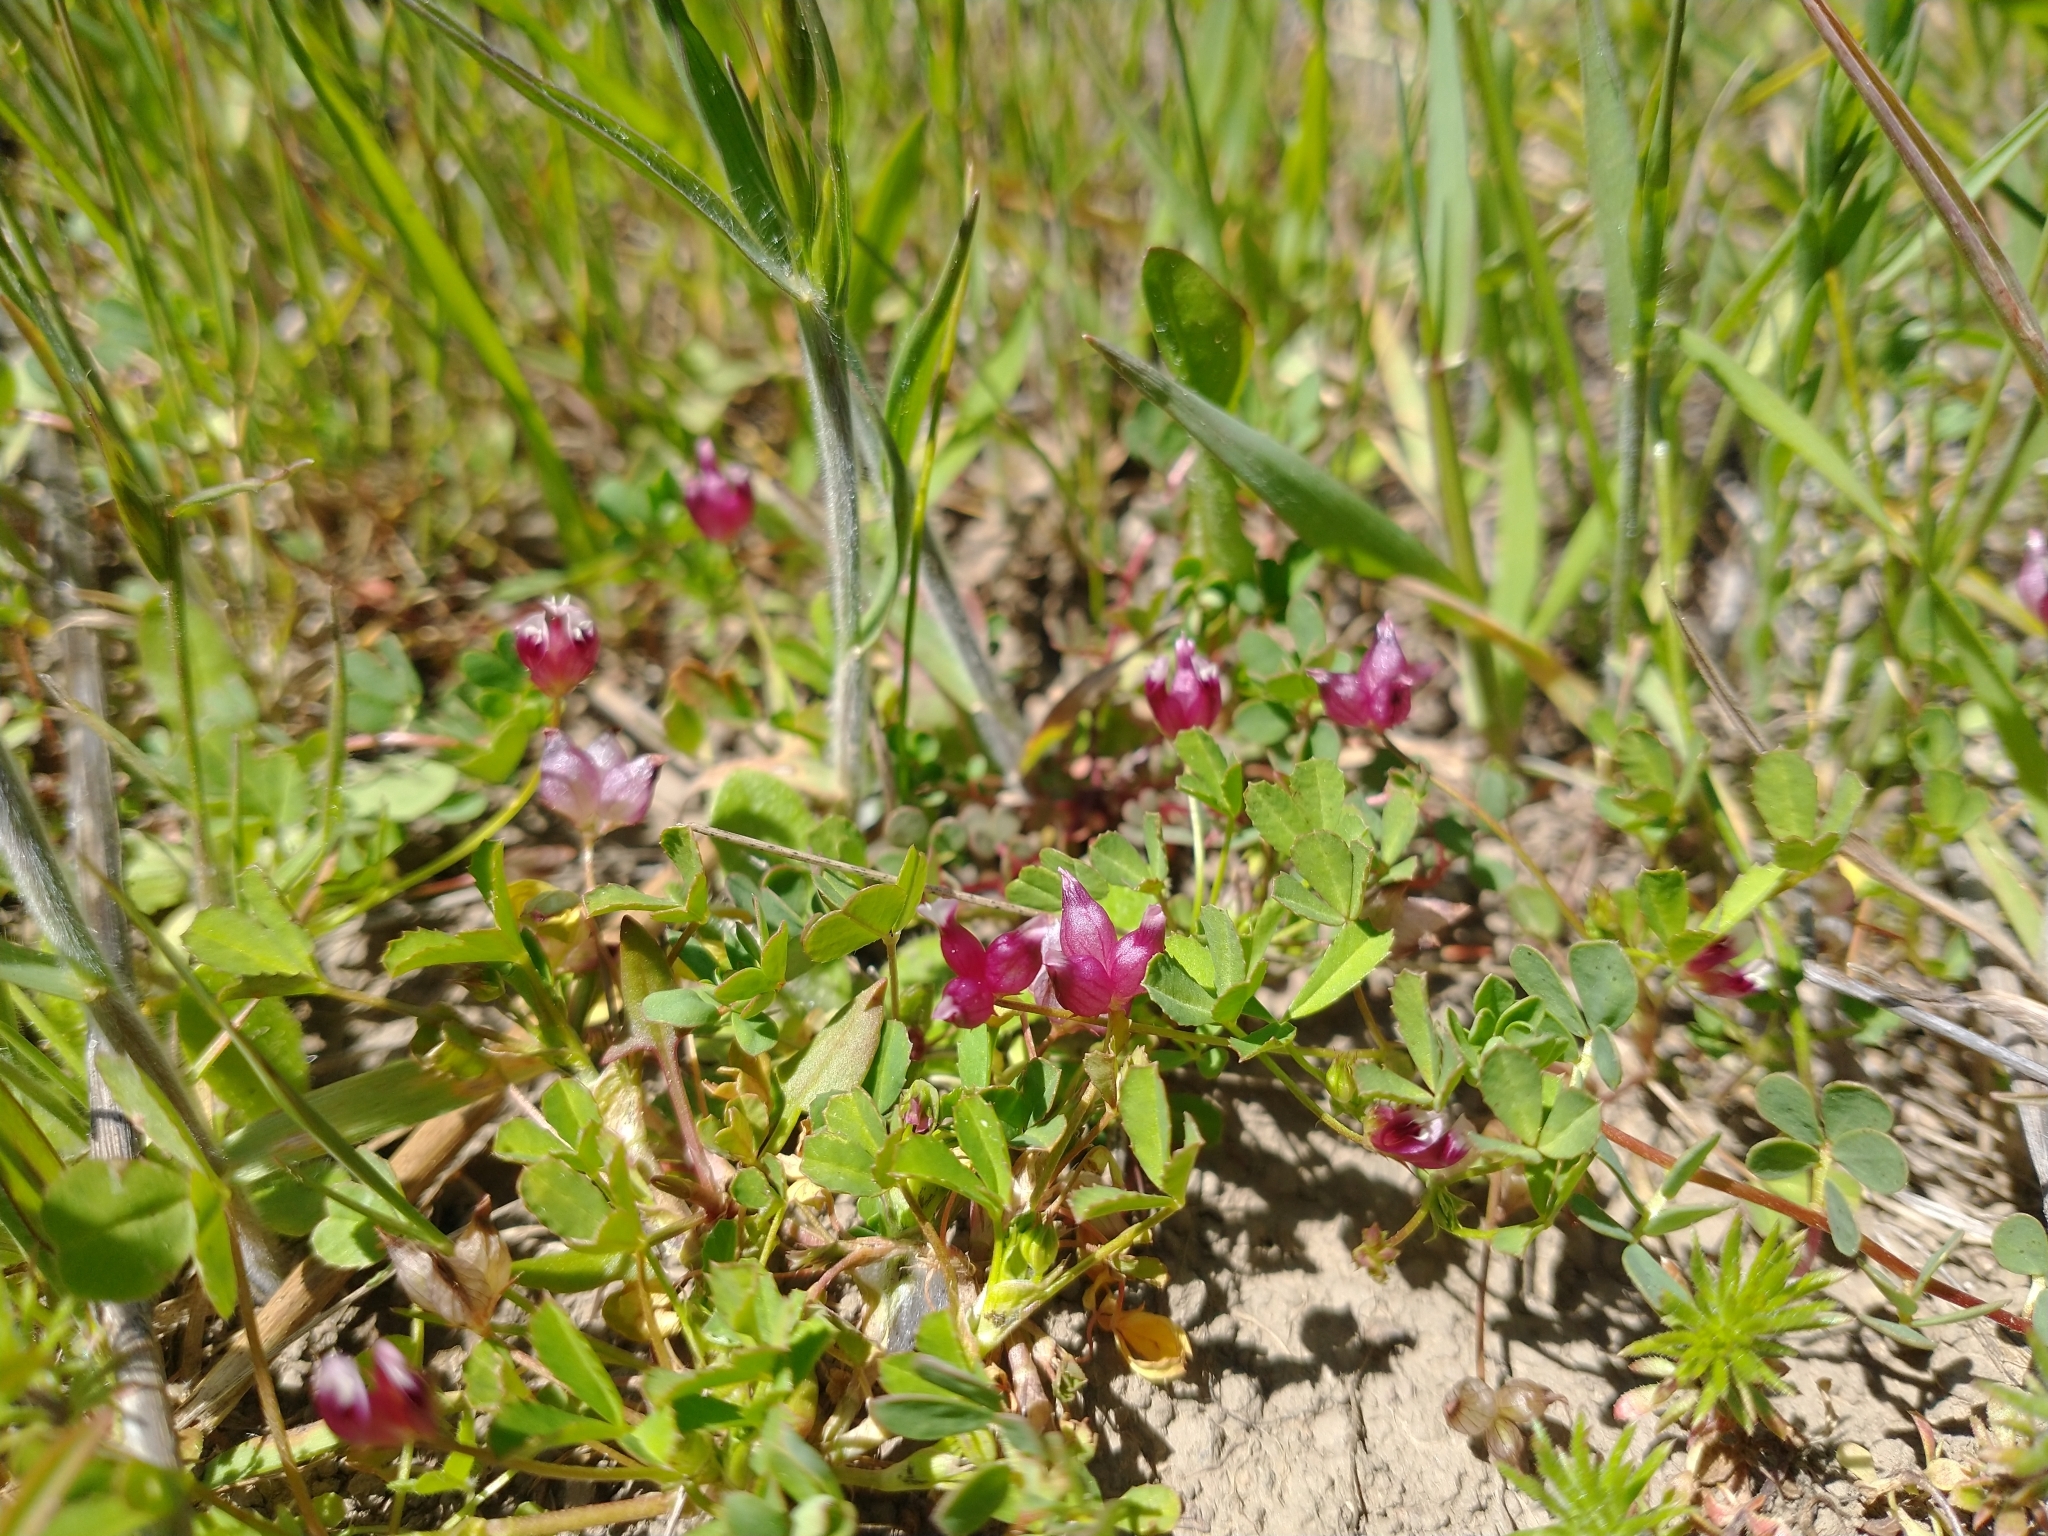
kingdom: Plantae
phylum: Tracheophyta
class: Magnoliopsida
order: Fabales
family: Fabaceae
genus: Trifolium
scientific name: Trifolium depauperatum
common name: Poverty clover
